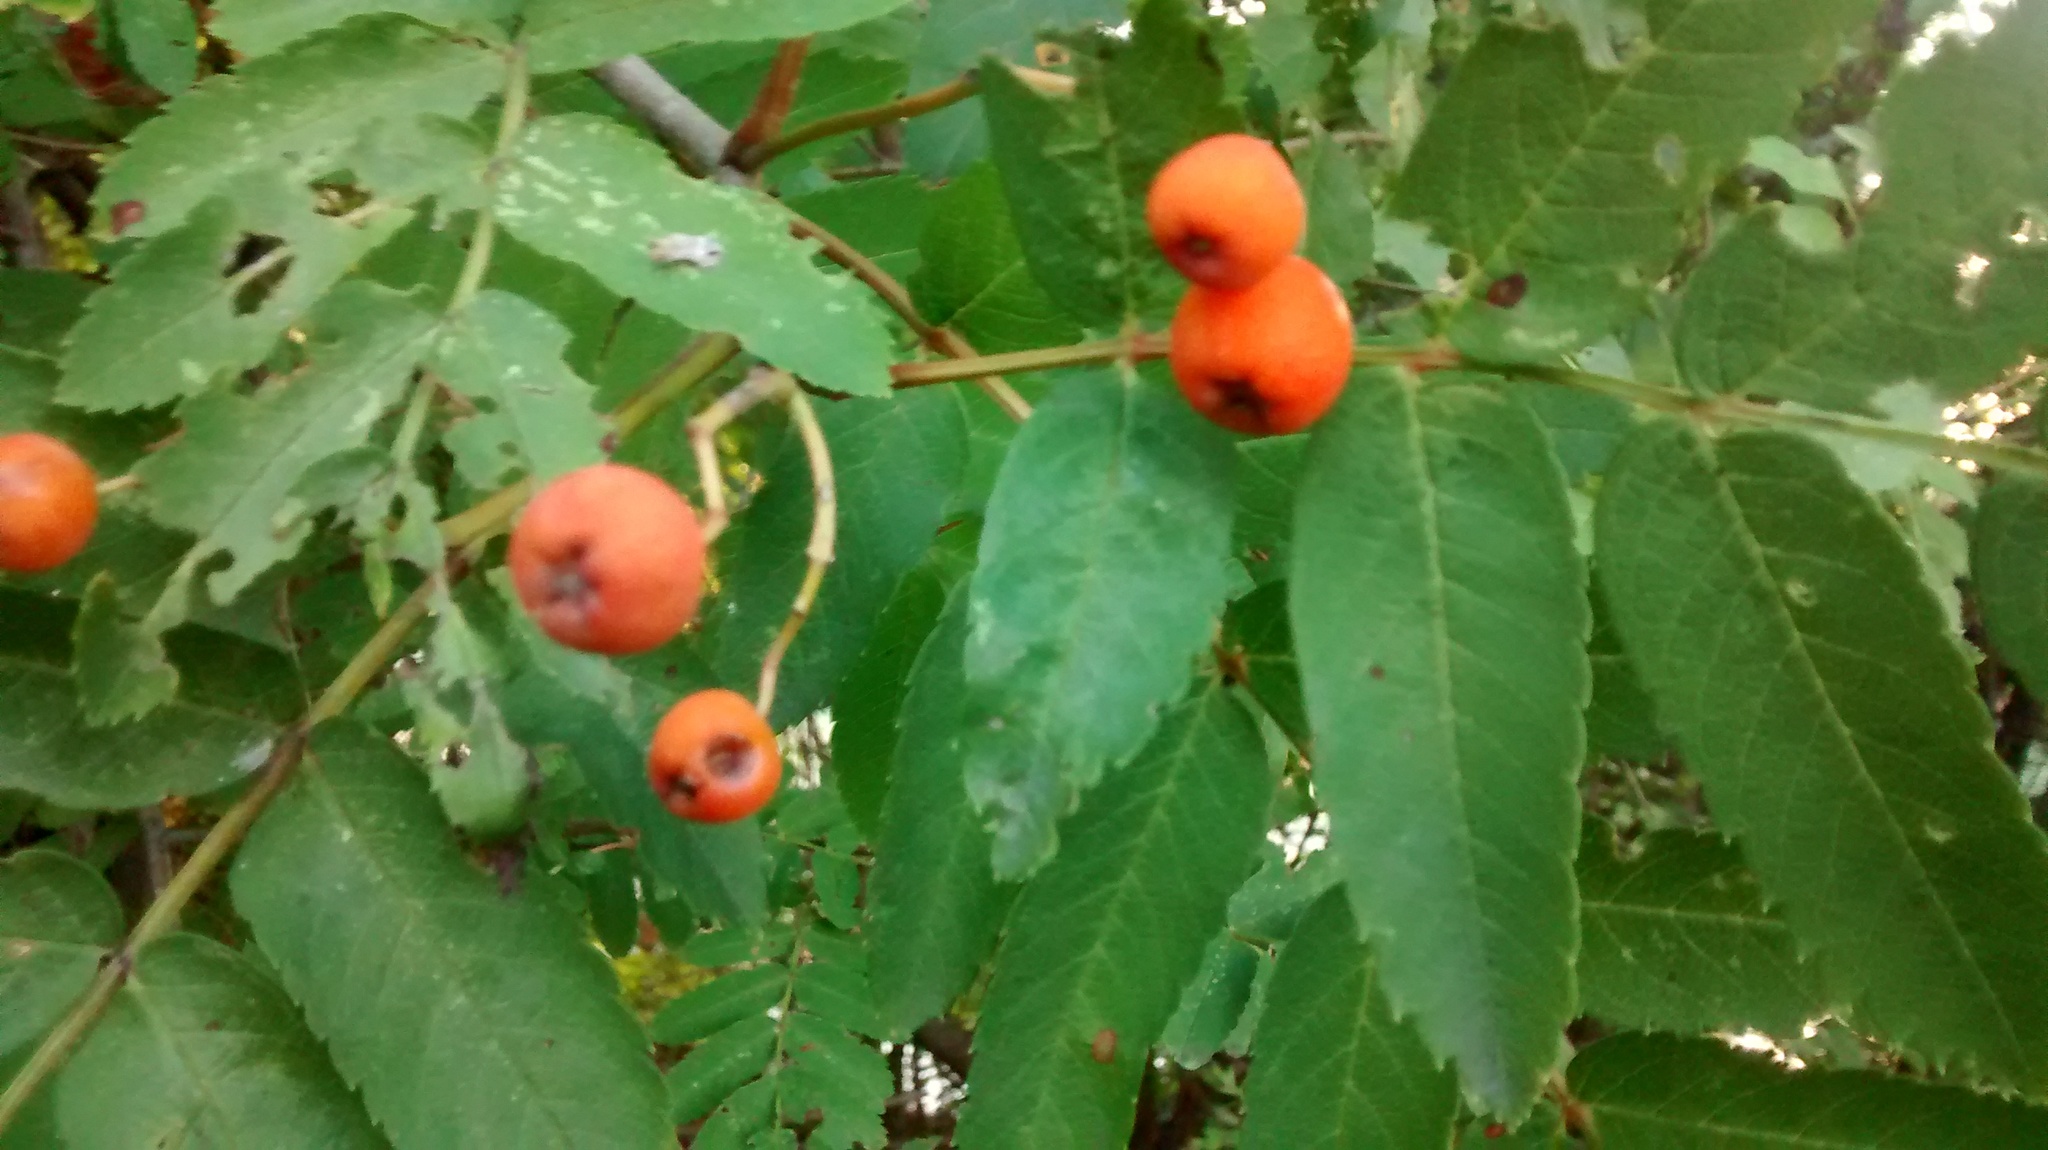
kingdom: Plantae
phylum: Tracheophyta
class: Magnoliopsida
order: Rosales
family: Rosaceae
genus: Sorbus
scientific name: Sorbus aucuparia
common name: Rowan
